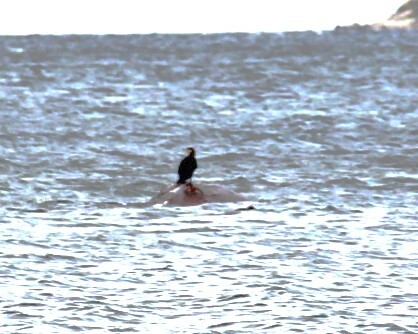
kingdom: Animalia
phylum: Chordata
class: Aves
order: Suliformes
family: Phalacrocoracidae
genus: Phalacrocorax
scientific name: Phalacrocorax carbo
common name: Great cormorant
